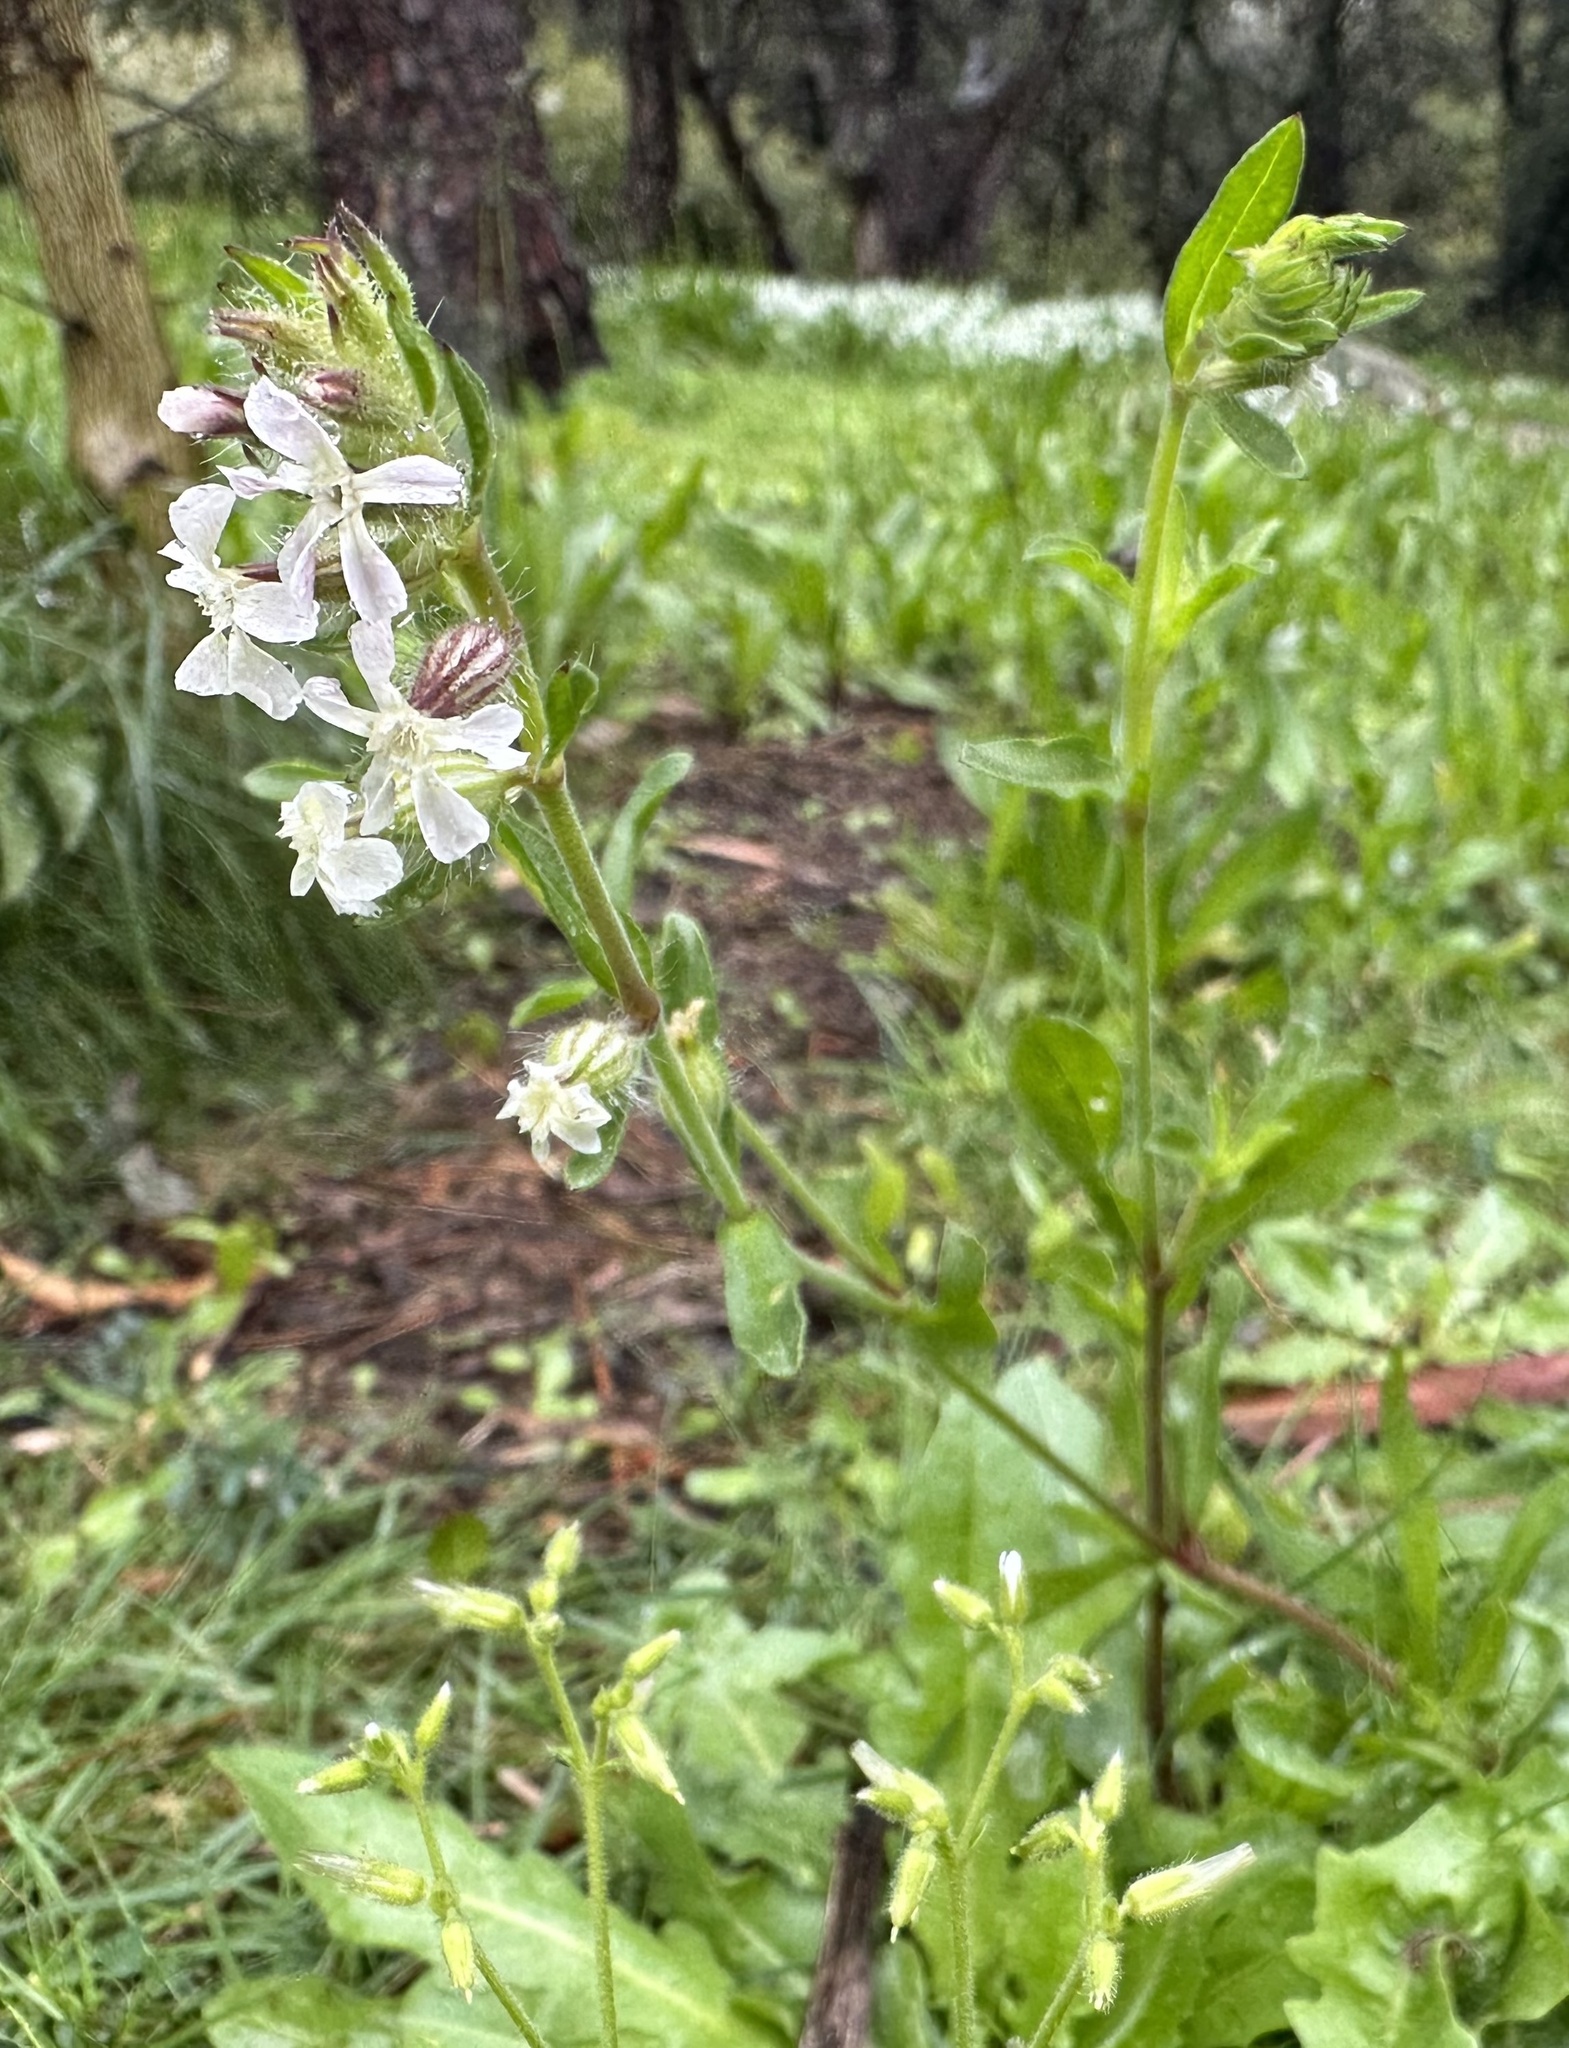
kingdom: Plantae
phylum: Tracheophyta
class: Magnoliopsida
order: Caryophyllales
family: Caryophyllaceae
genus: Silene
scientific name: Silene gallica
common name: Small-flowered catchfly
